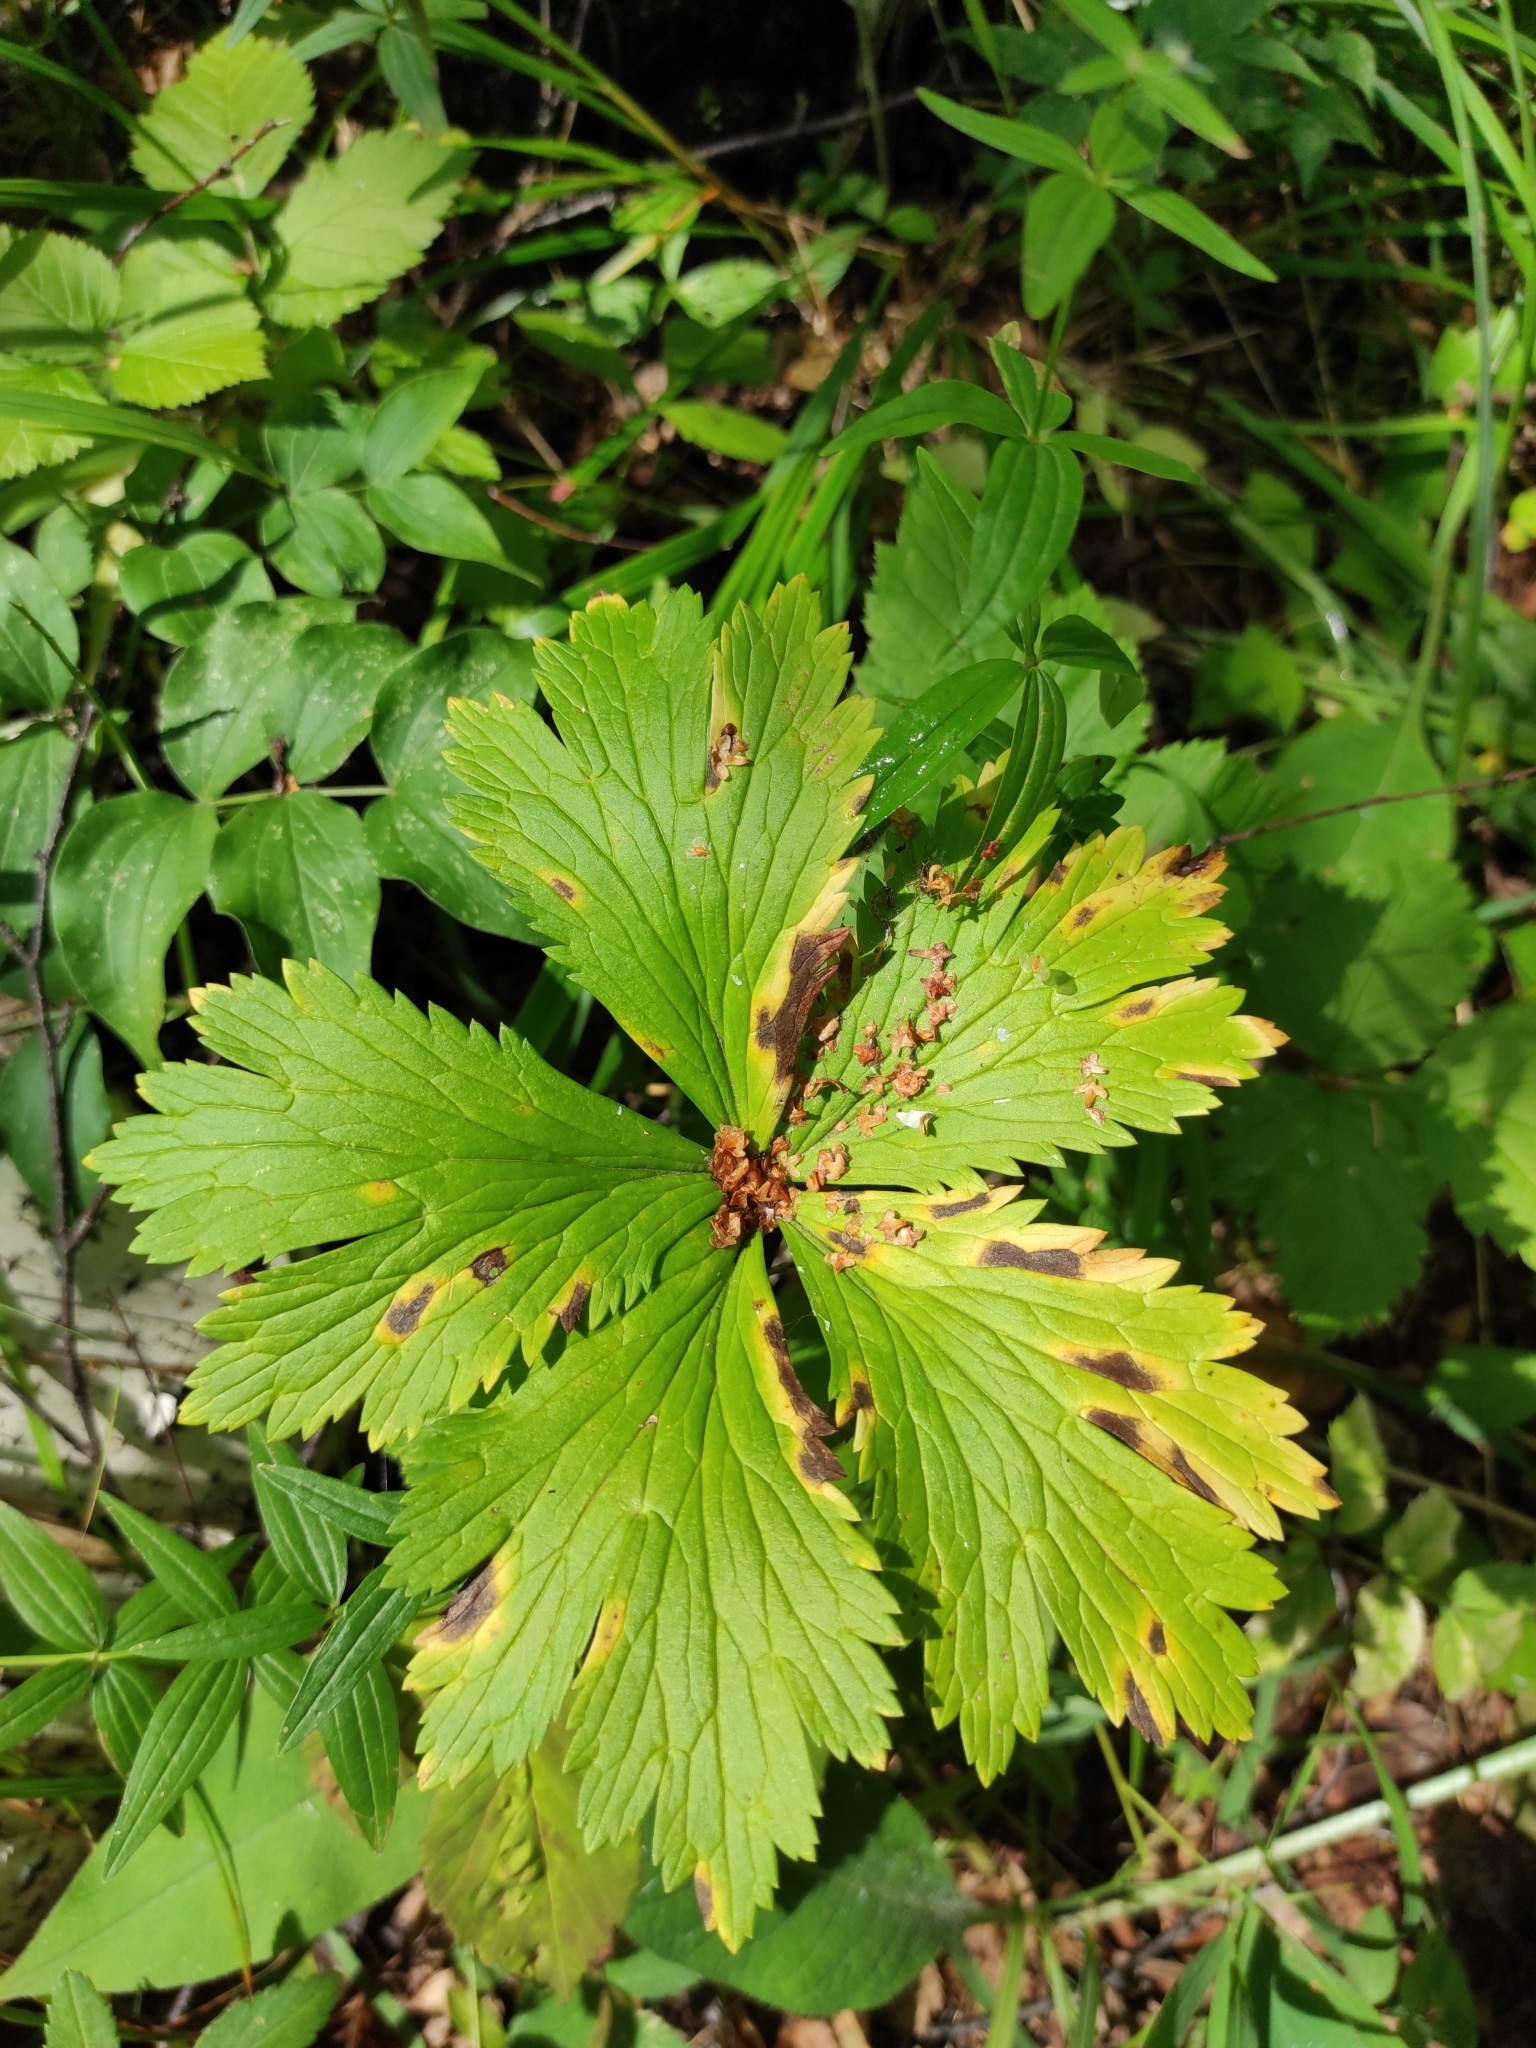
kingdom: Plantae
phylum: Tracheophyta
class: Magnoliopsida
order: Ranunculales
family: Ranunculaceae
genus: Trollius
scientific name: Trollius europaeus
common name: European globeflower
